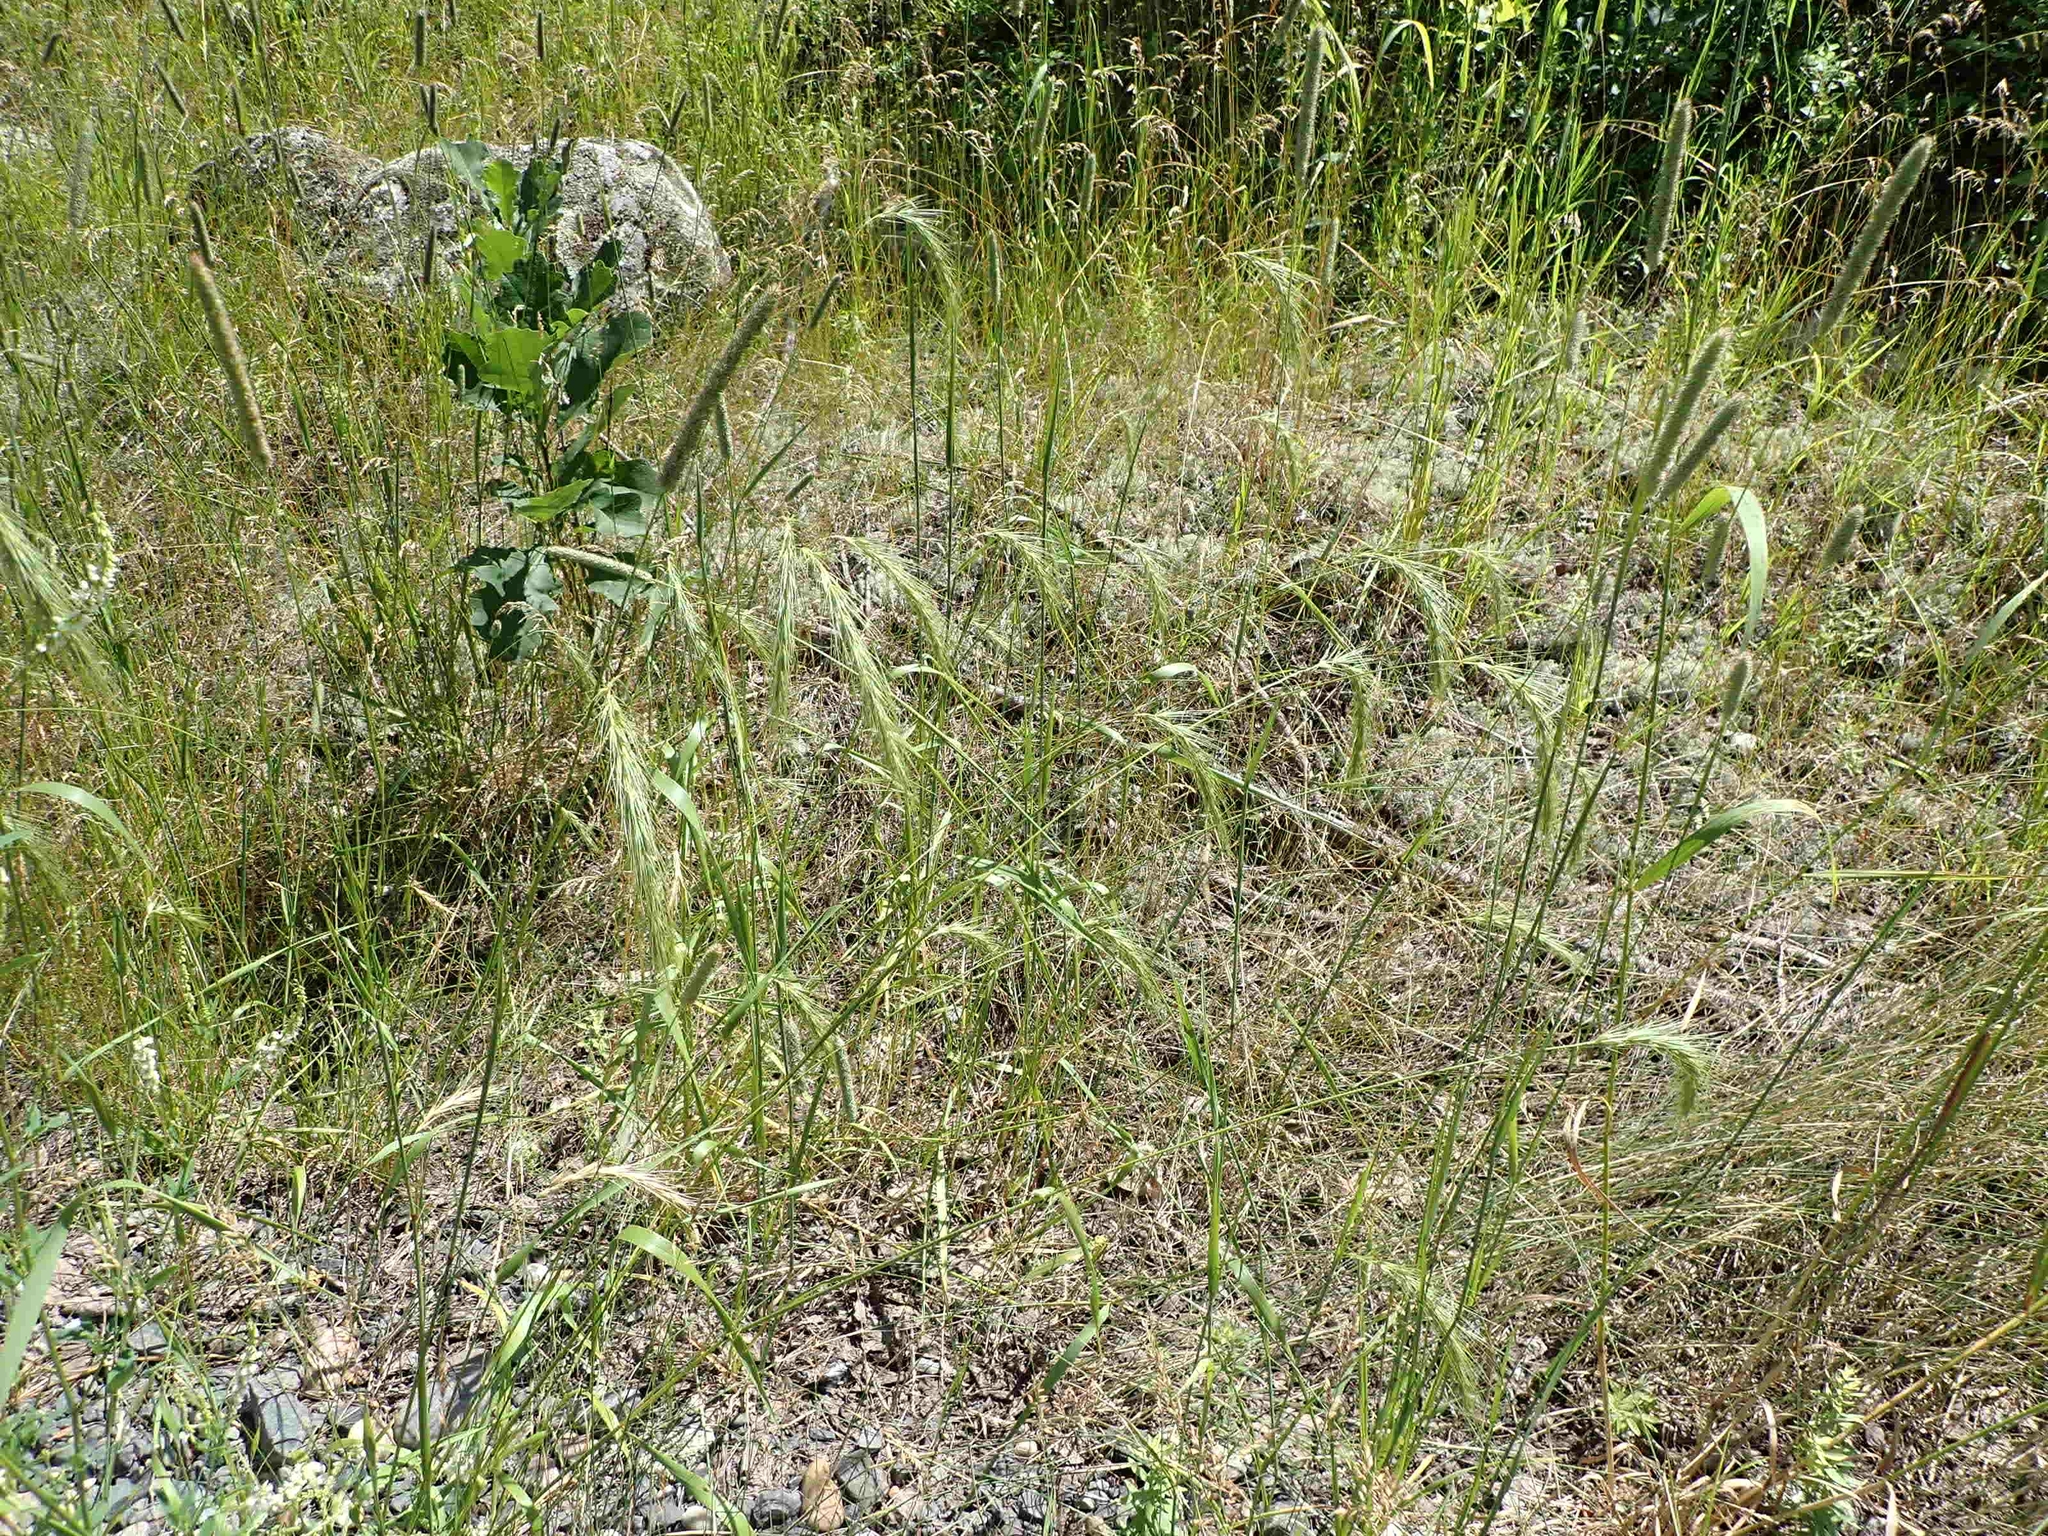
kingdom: Plantae
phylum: Tracheophyta
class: Liliopsida
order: Poales
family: Poaceae
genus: Elymus
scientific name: Elymus canadensis
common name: Canada wild rye
